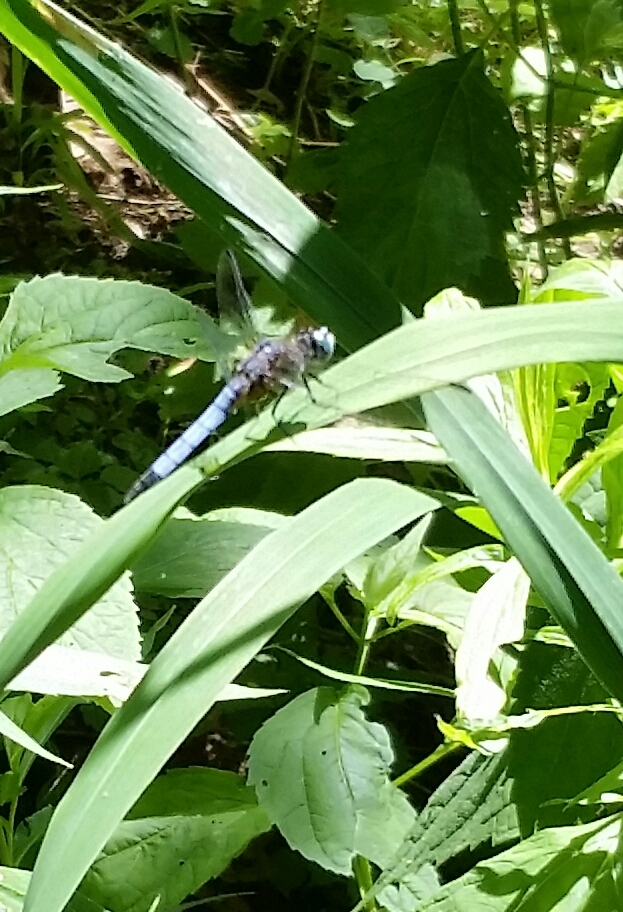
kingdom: Animalia
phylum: Arthropoda
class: Insecta
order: Odonata
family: Libellulidae
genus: Pachydiplax
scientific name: Pachydiplax longipennis
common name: Blue dasher
